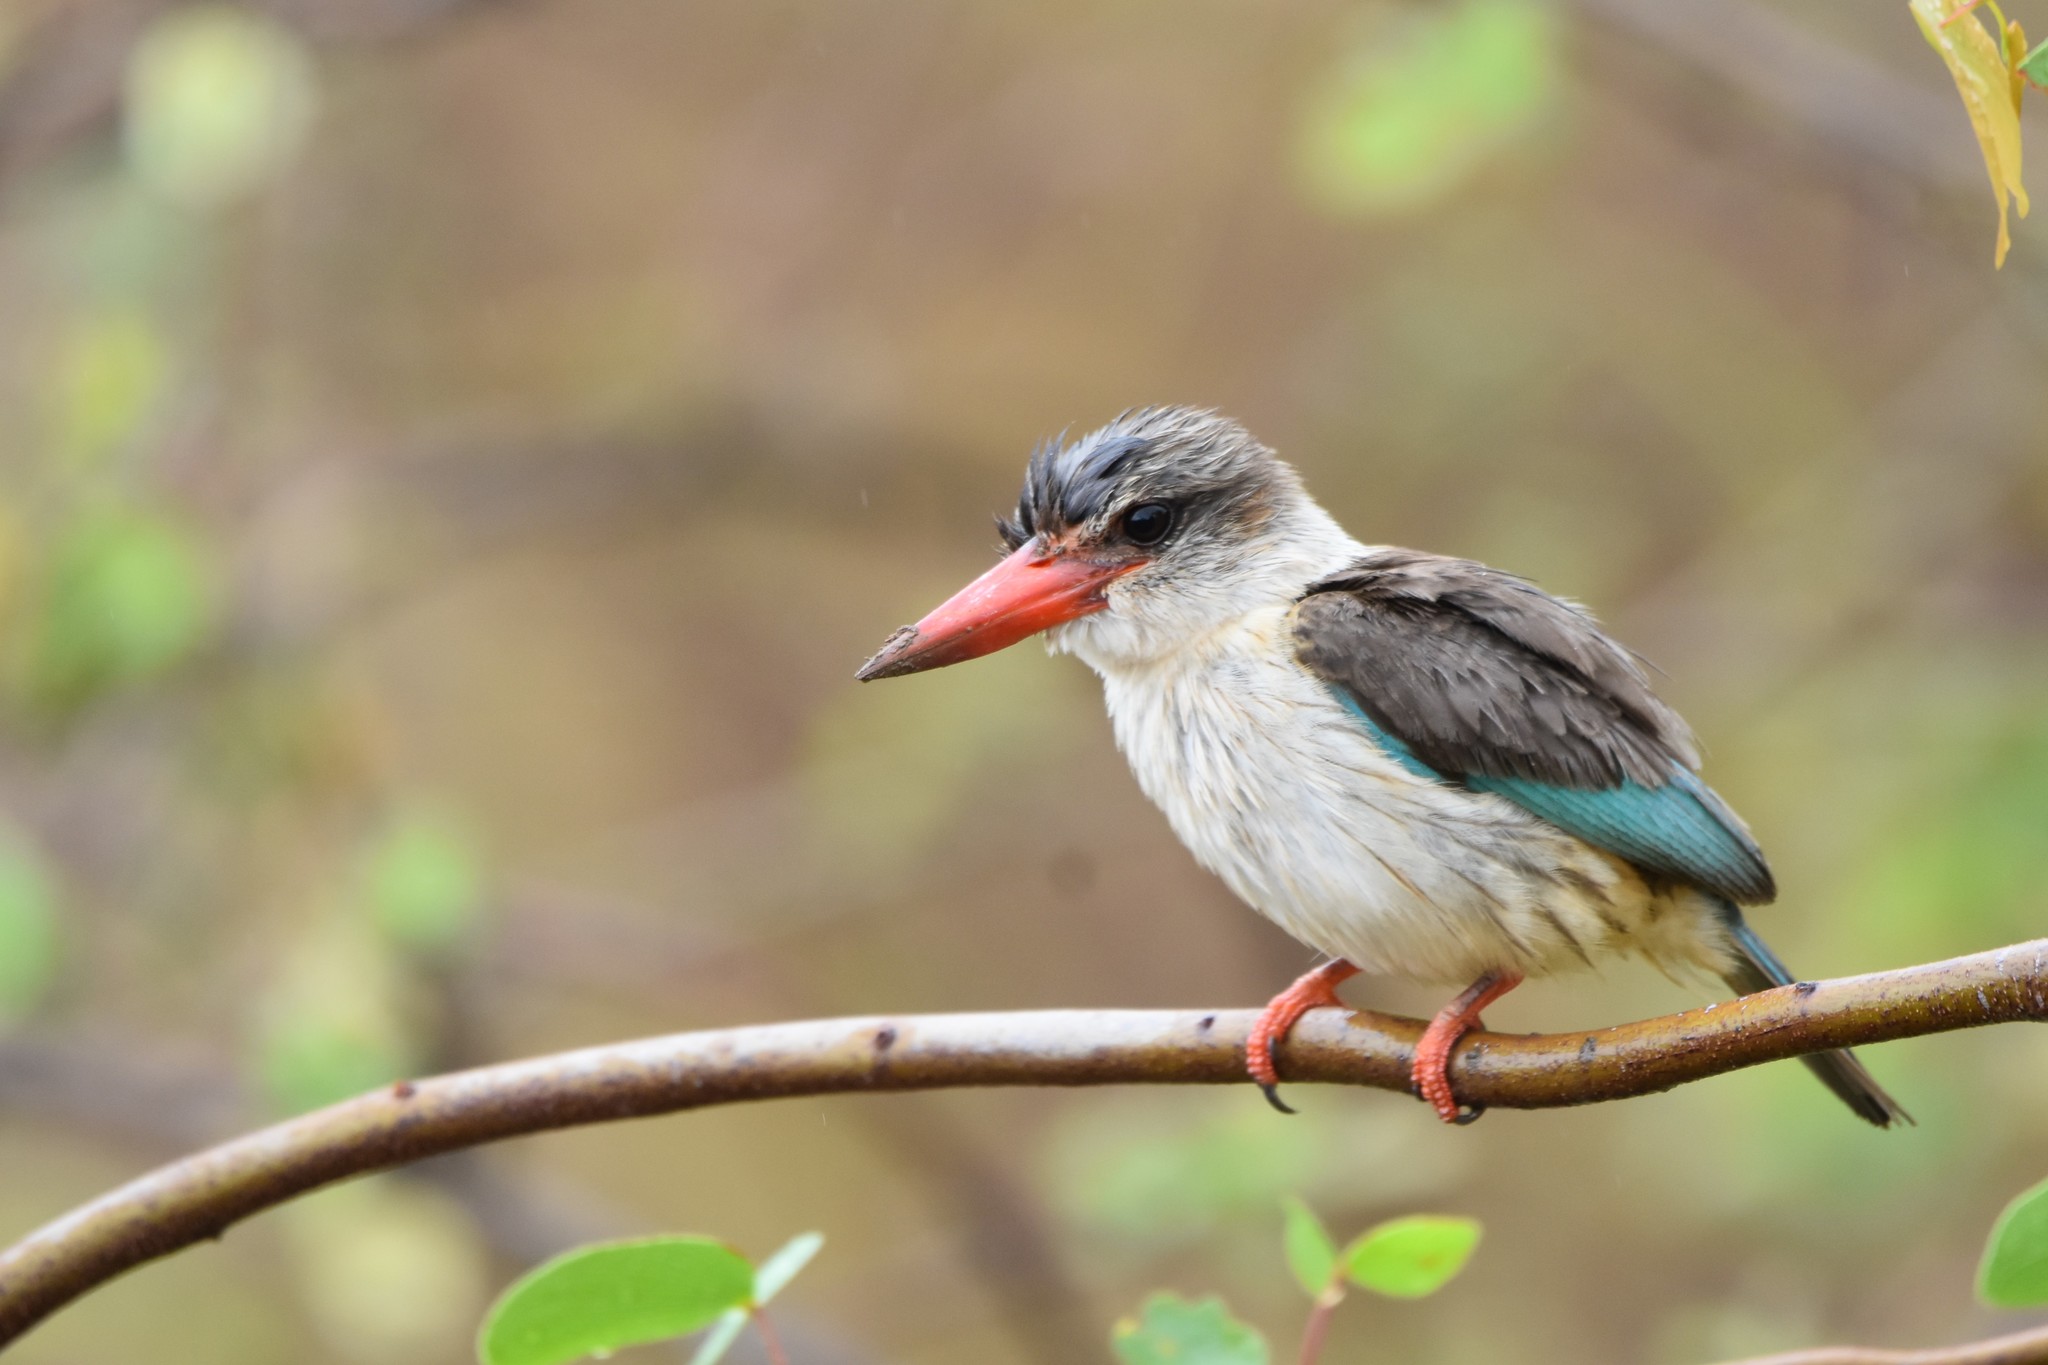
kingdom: Animalia
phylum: Chordata
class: Aves
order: Coraciiformes
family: Alcedinidae
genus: Halcyon
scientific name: Halcyon albiventris
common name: Brown-hooded kingfisher
